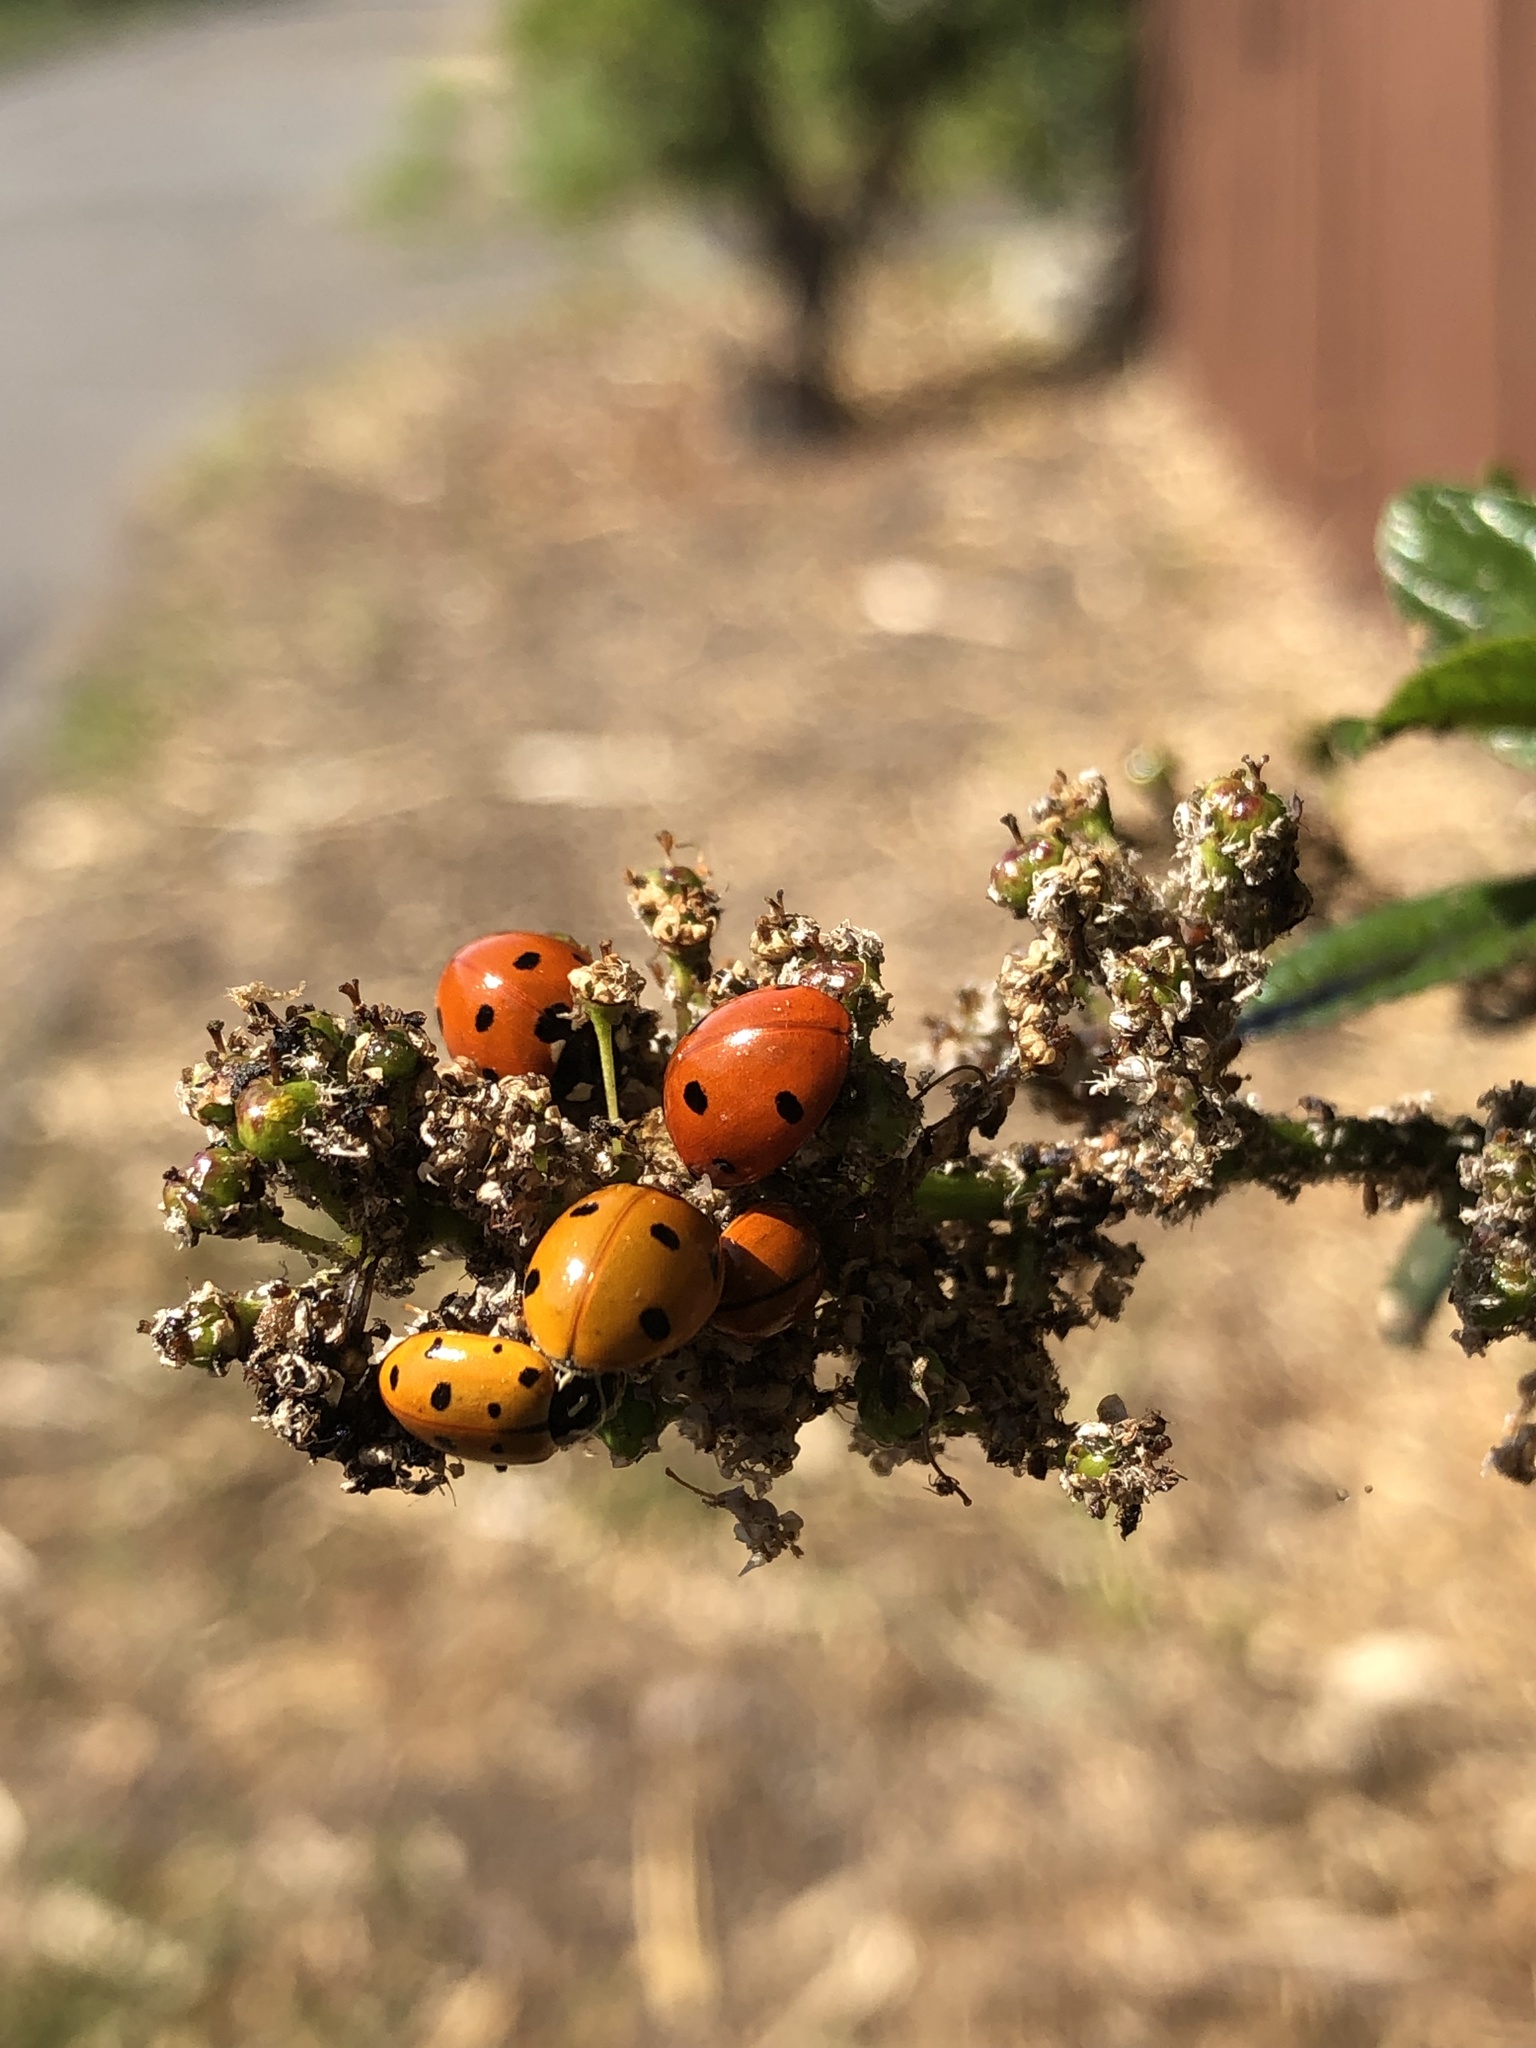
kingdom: Animalia
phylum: Arthropoda
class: Insecta
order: Coleoptera
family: Coccinellidae
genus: Coccinella
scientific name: Coccinella septempunctata
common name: Sevenspotted lady beetle
